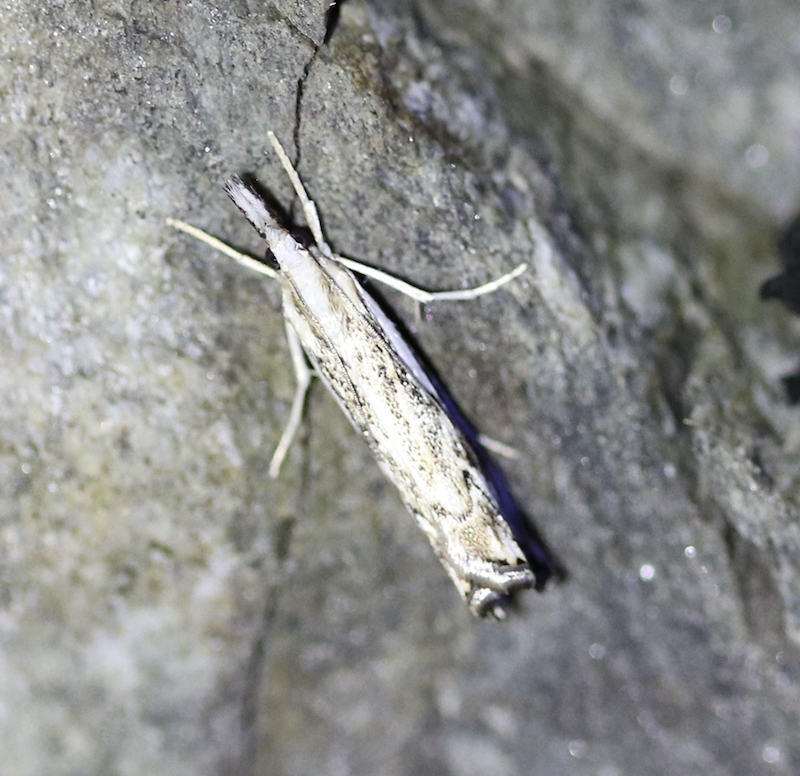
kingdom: Animalia
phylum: Arthropoda
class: Insecta
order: Lepidoptera
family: Crambidae
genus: Catoptria
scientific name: Catoptria falsella
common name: Chequered grass-veneer
